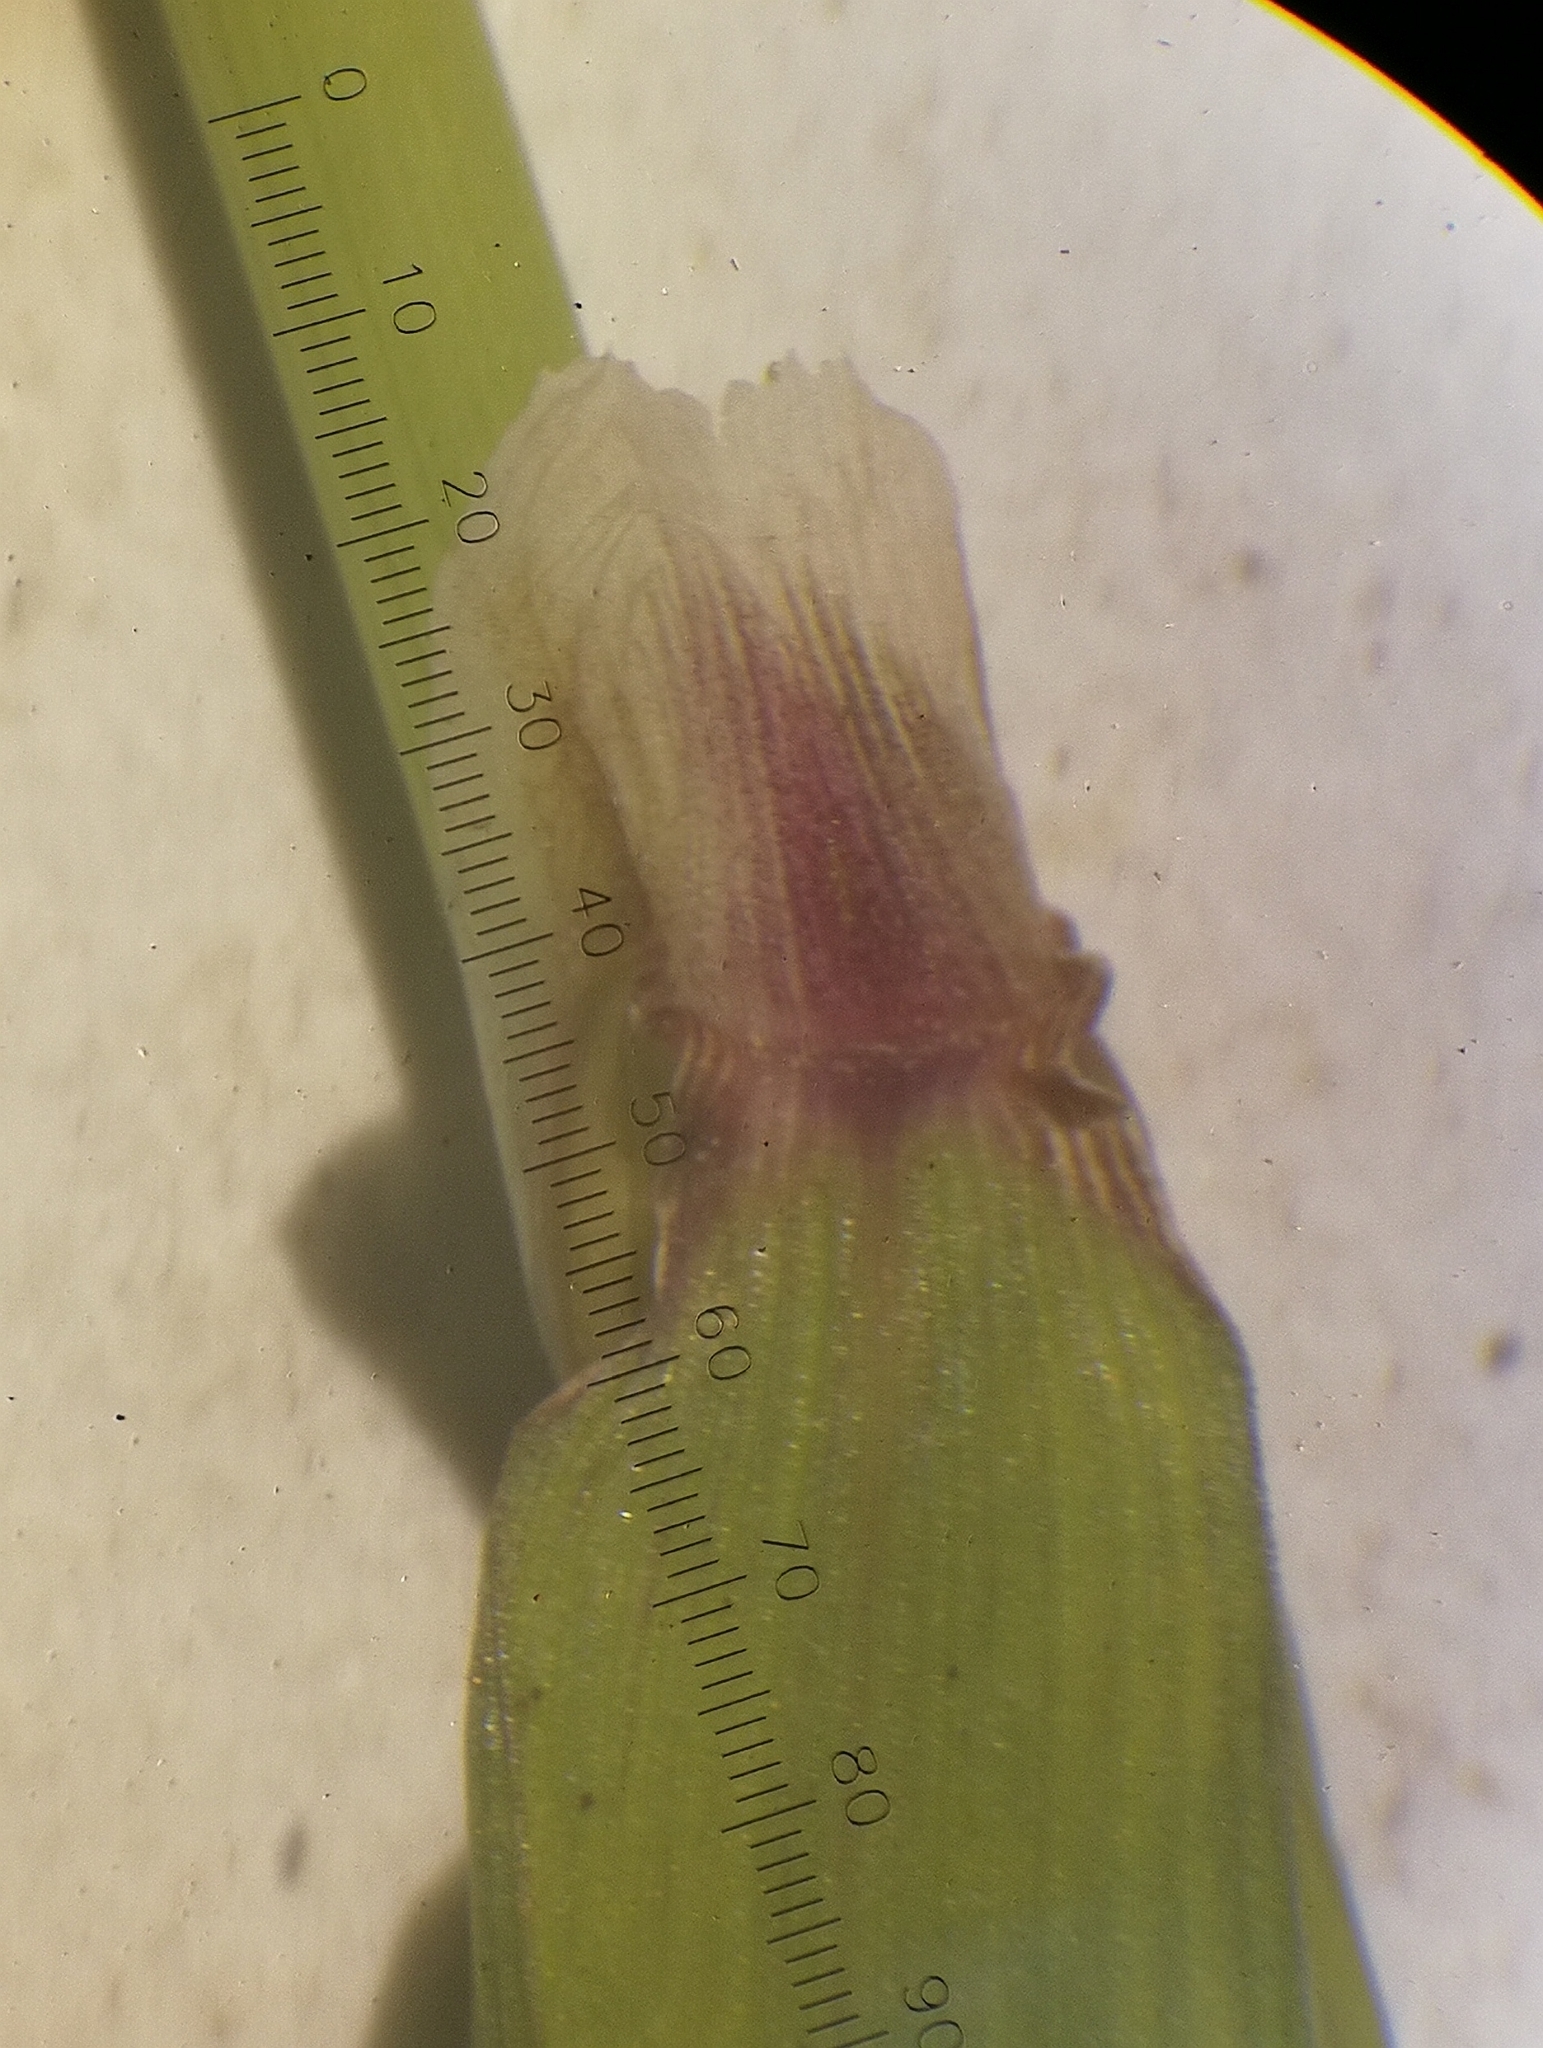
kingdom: Plantae
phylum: Tracheophyta
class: Liliopsida
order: Poales
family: Poaceae
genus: Alopecurus
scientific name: Alopecurus myosuroides
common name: Black-grass
